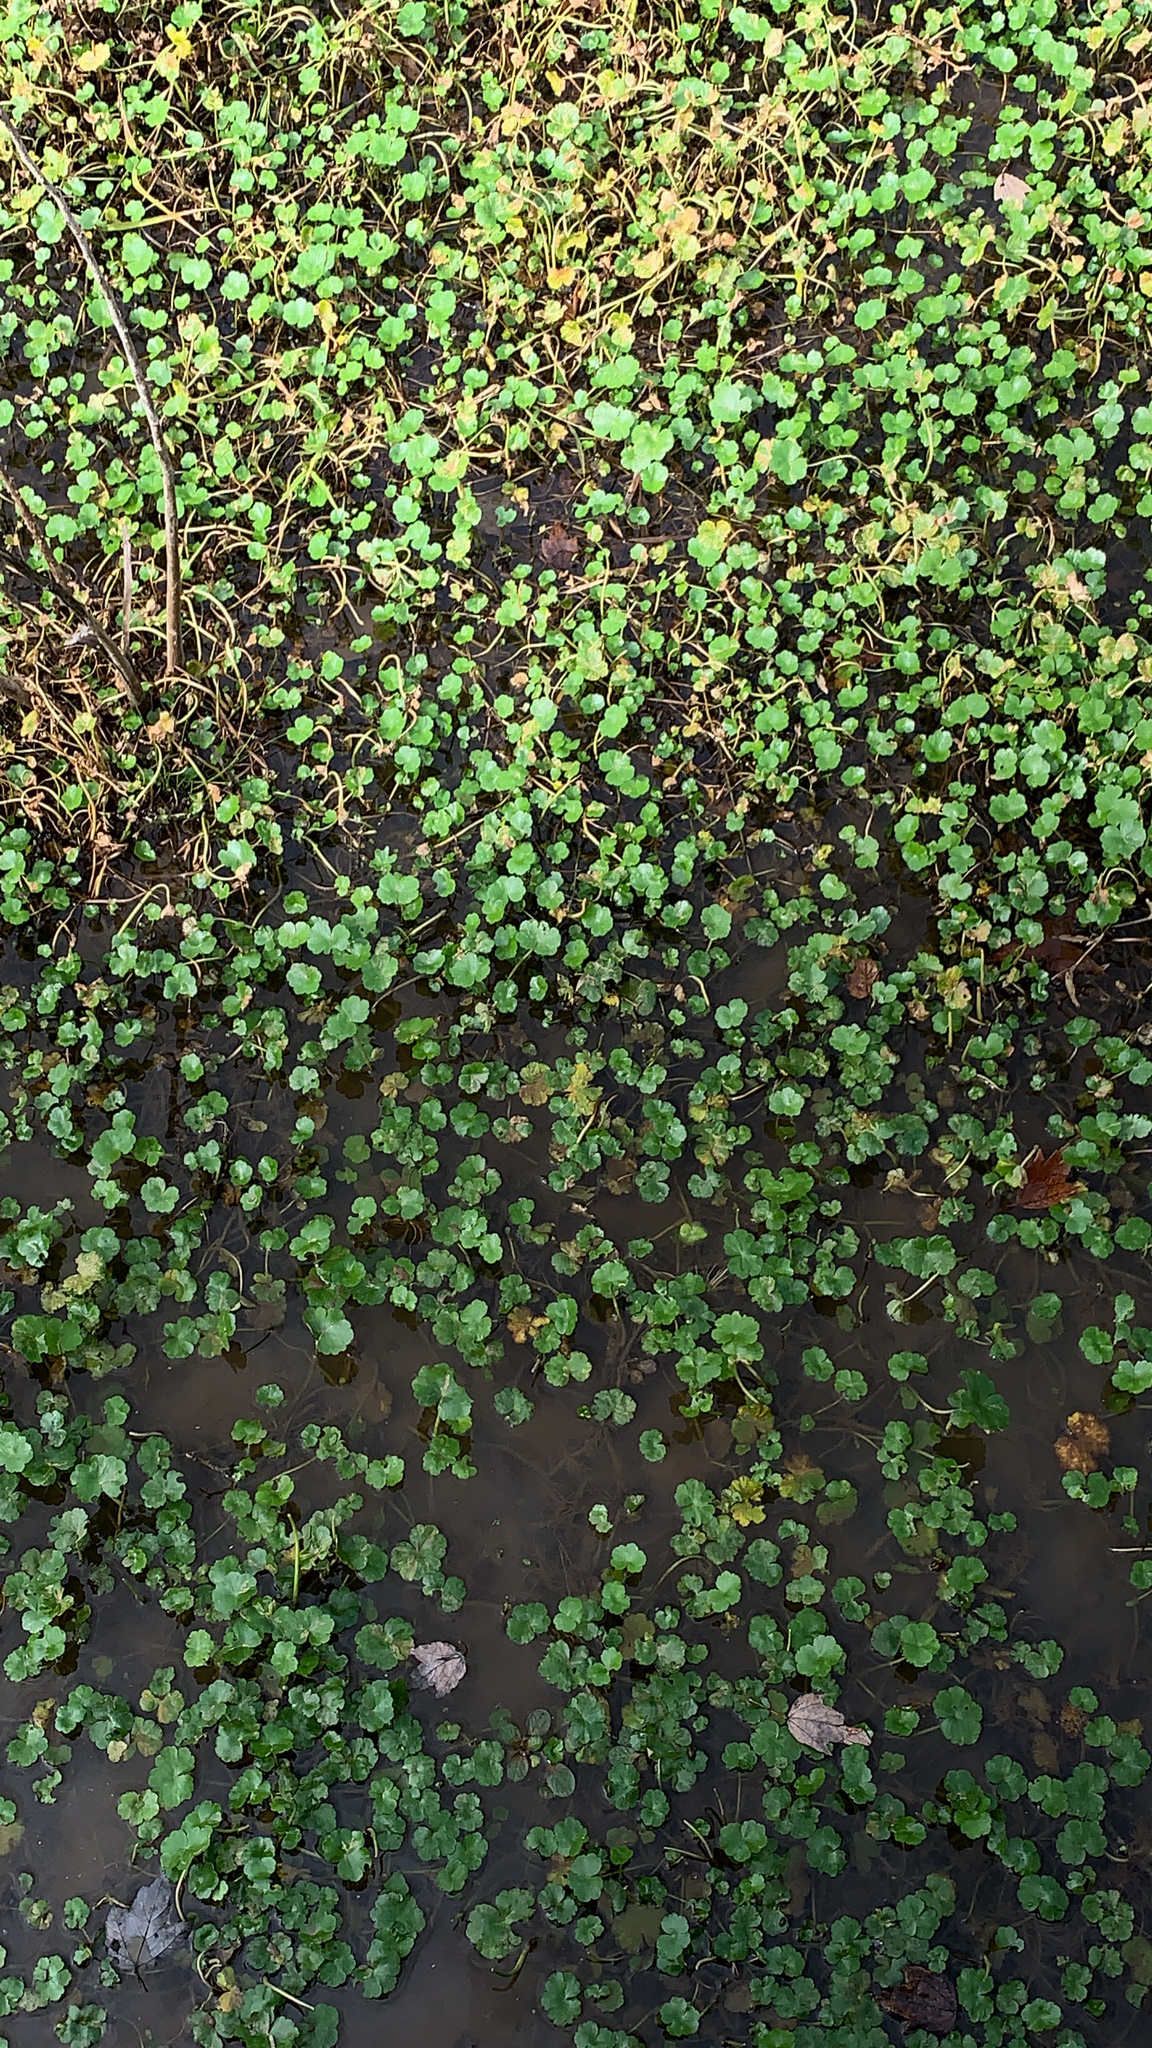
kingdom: Plantae
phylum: Tracheophyta
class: Magnoliopsida
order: Apiales
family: Araliaceae
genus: Hydrocotyle
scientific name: Hydrocotyle ranunculoides
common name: Floating pennywort
